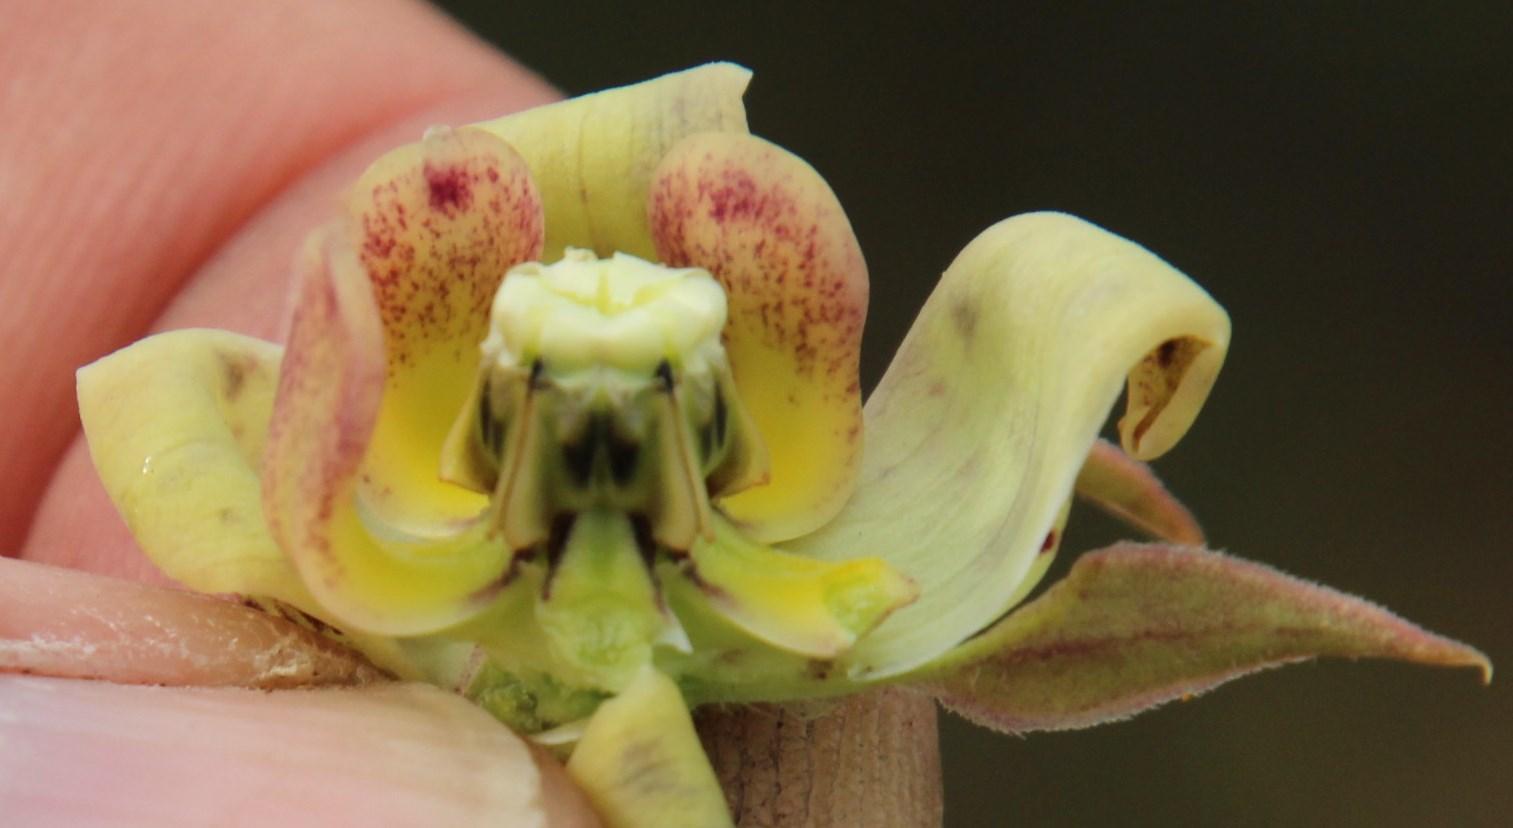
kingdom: Plantae
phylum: Tracheophyta
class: Magnoliopsida
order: Gentianales
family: Apocynaceae
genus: Pachycarpus
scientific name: Pachycarpus dealbatus
